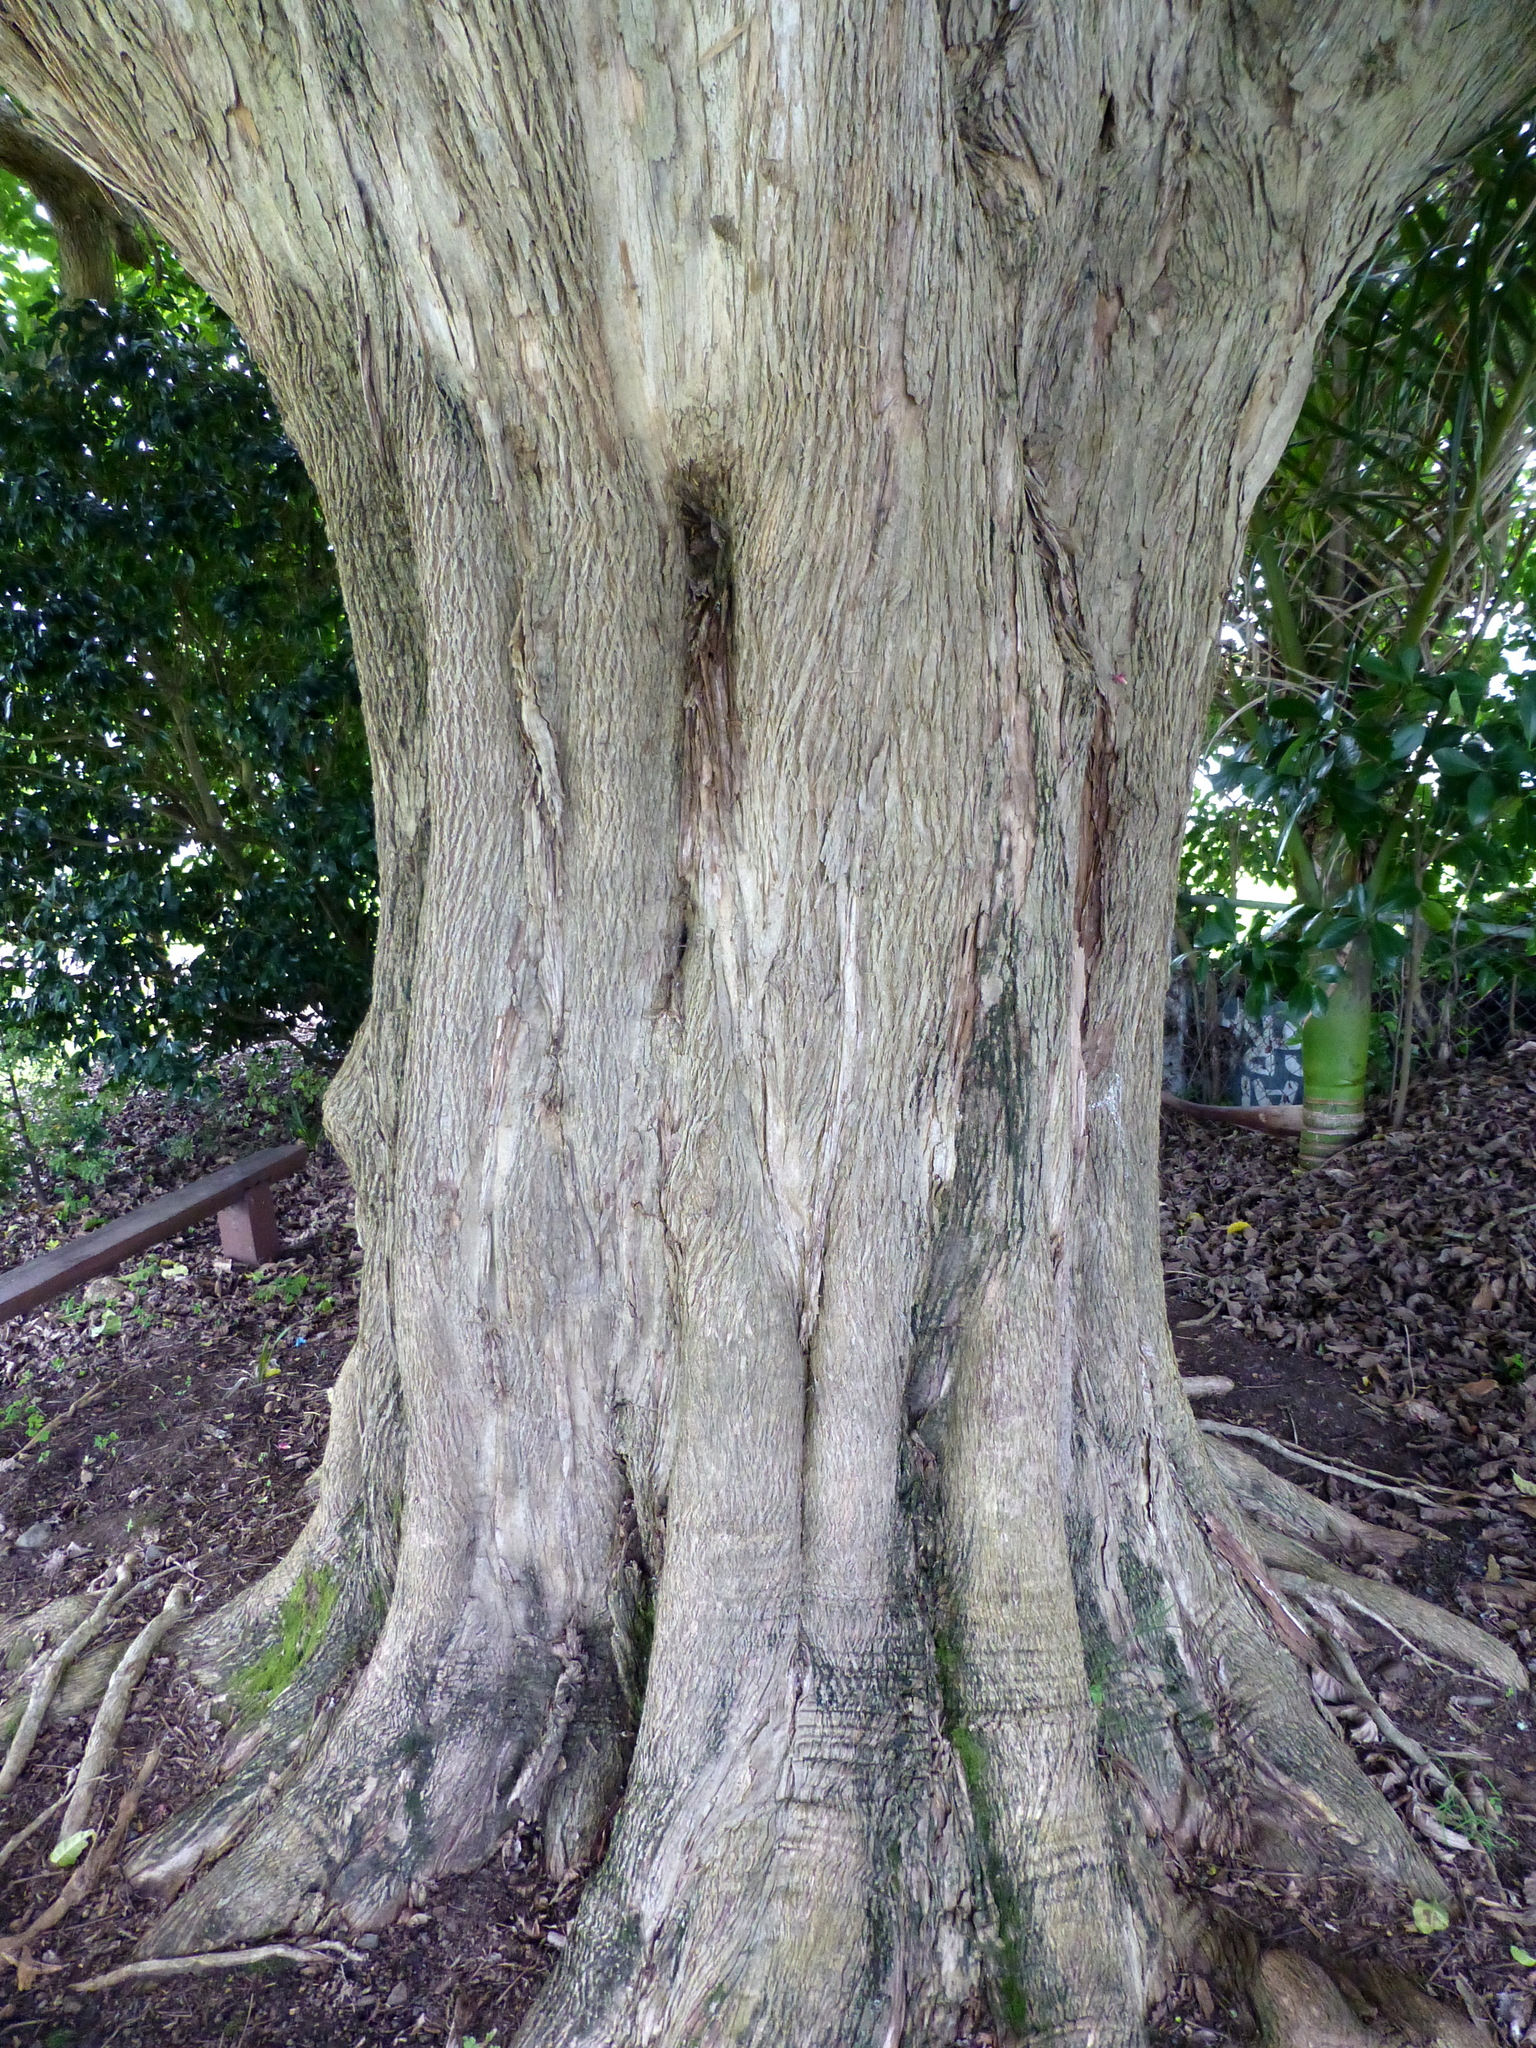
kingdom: Plantae
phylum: Tracheophyta
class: Magnoliopsida
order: Lamiales
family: Lamiaceae
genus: Vitex
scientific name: Vitex lucens
